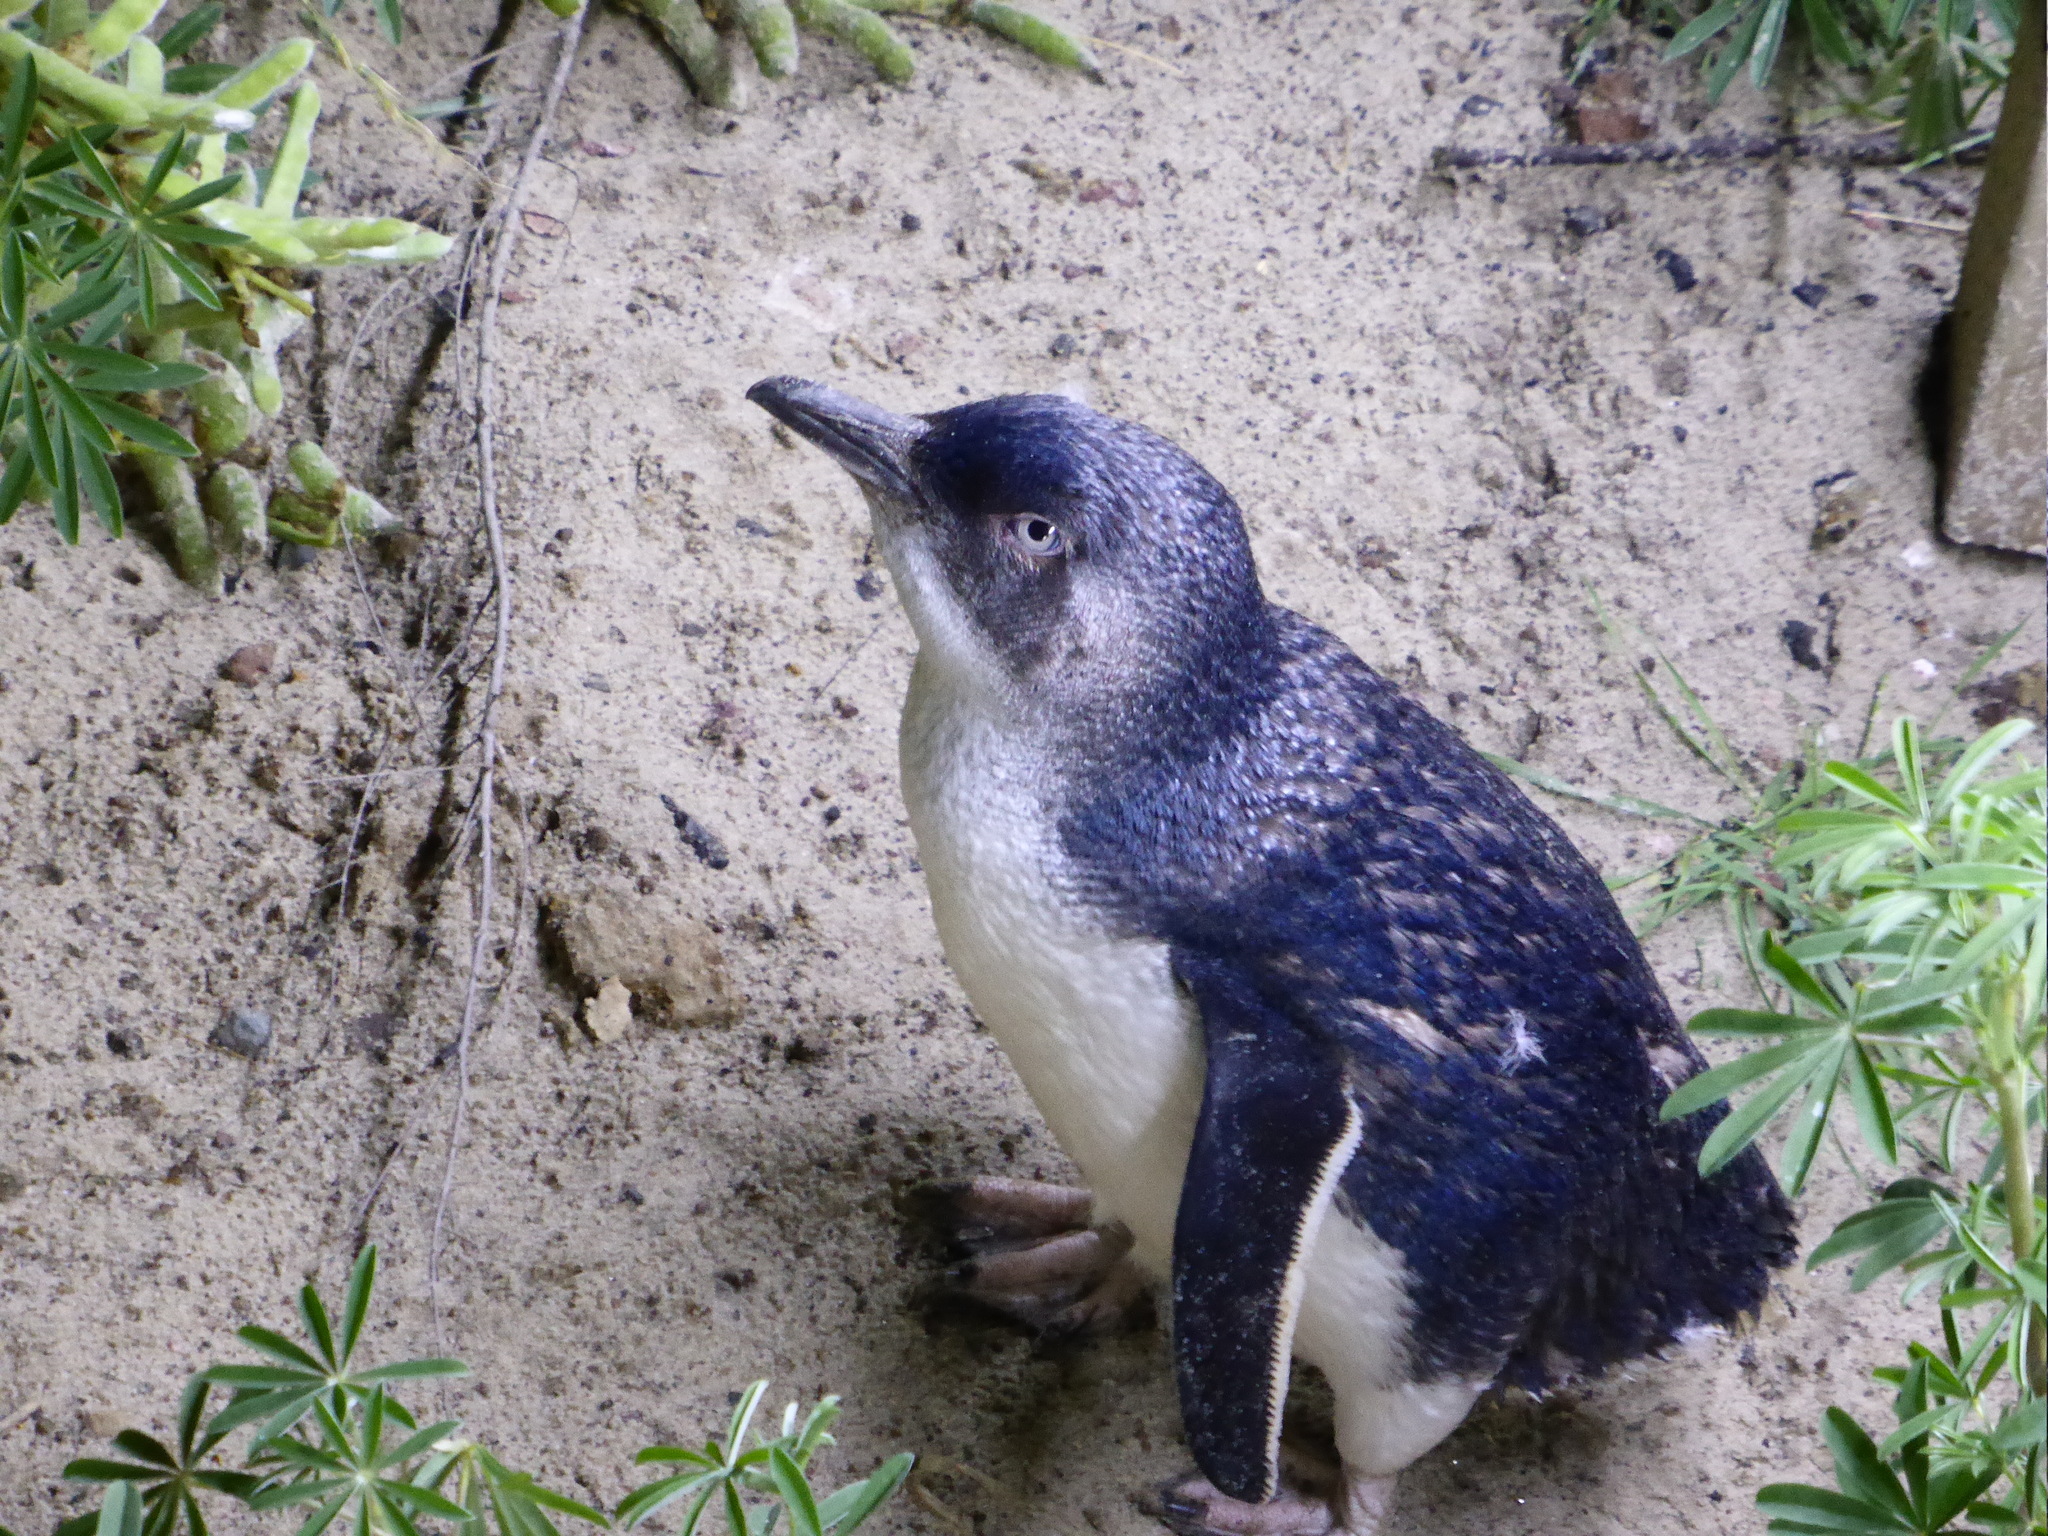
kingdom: Animalia
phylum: Chordata
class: Aves
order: Sphenisciformes
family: Spheniscidae
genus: Eudyptula
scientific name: Eudyptula minor
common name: Little penguin
